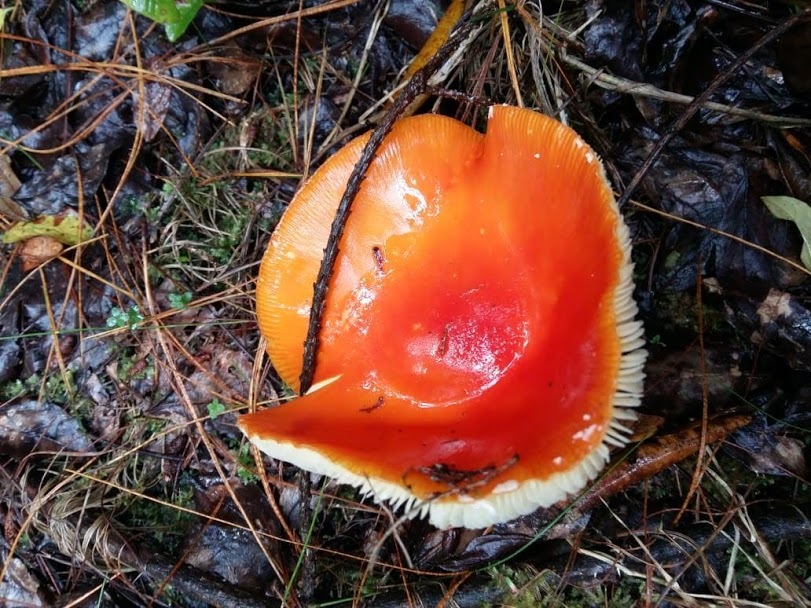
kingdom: Fungi
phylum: Basidiomycota
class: Agaricomycetes
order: Agaricales
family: Amanitaceae
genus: Amanita
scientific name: Amanita muscaria
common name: Fly agaric
